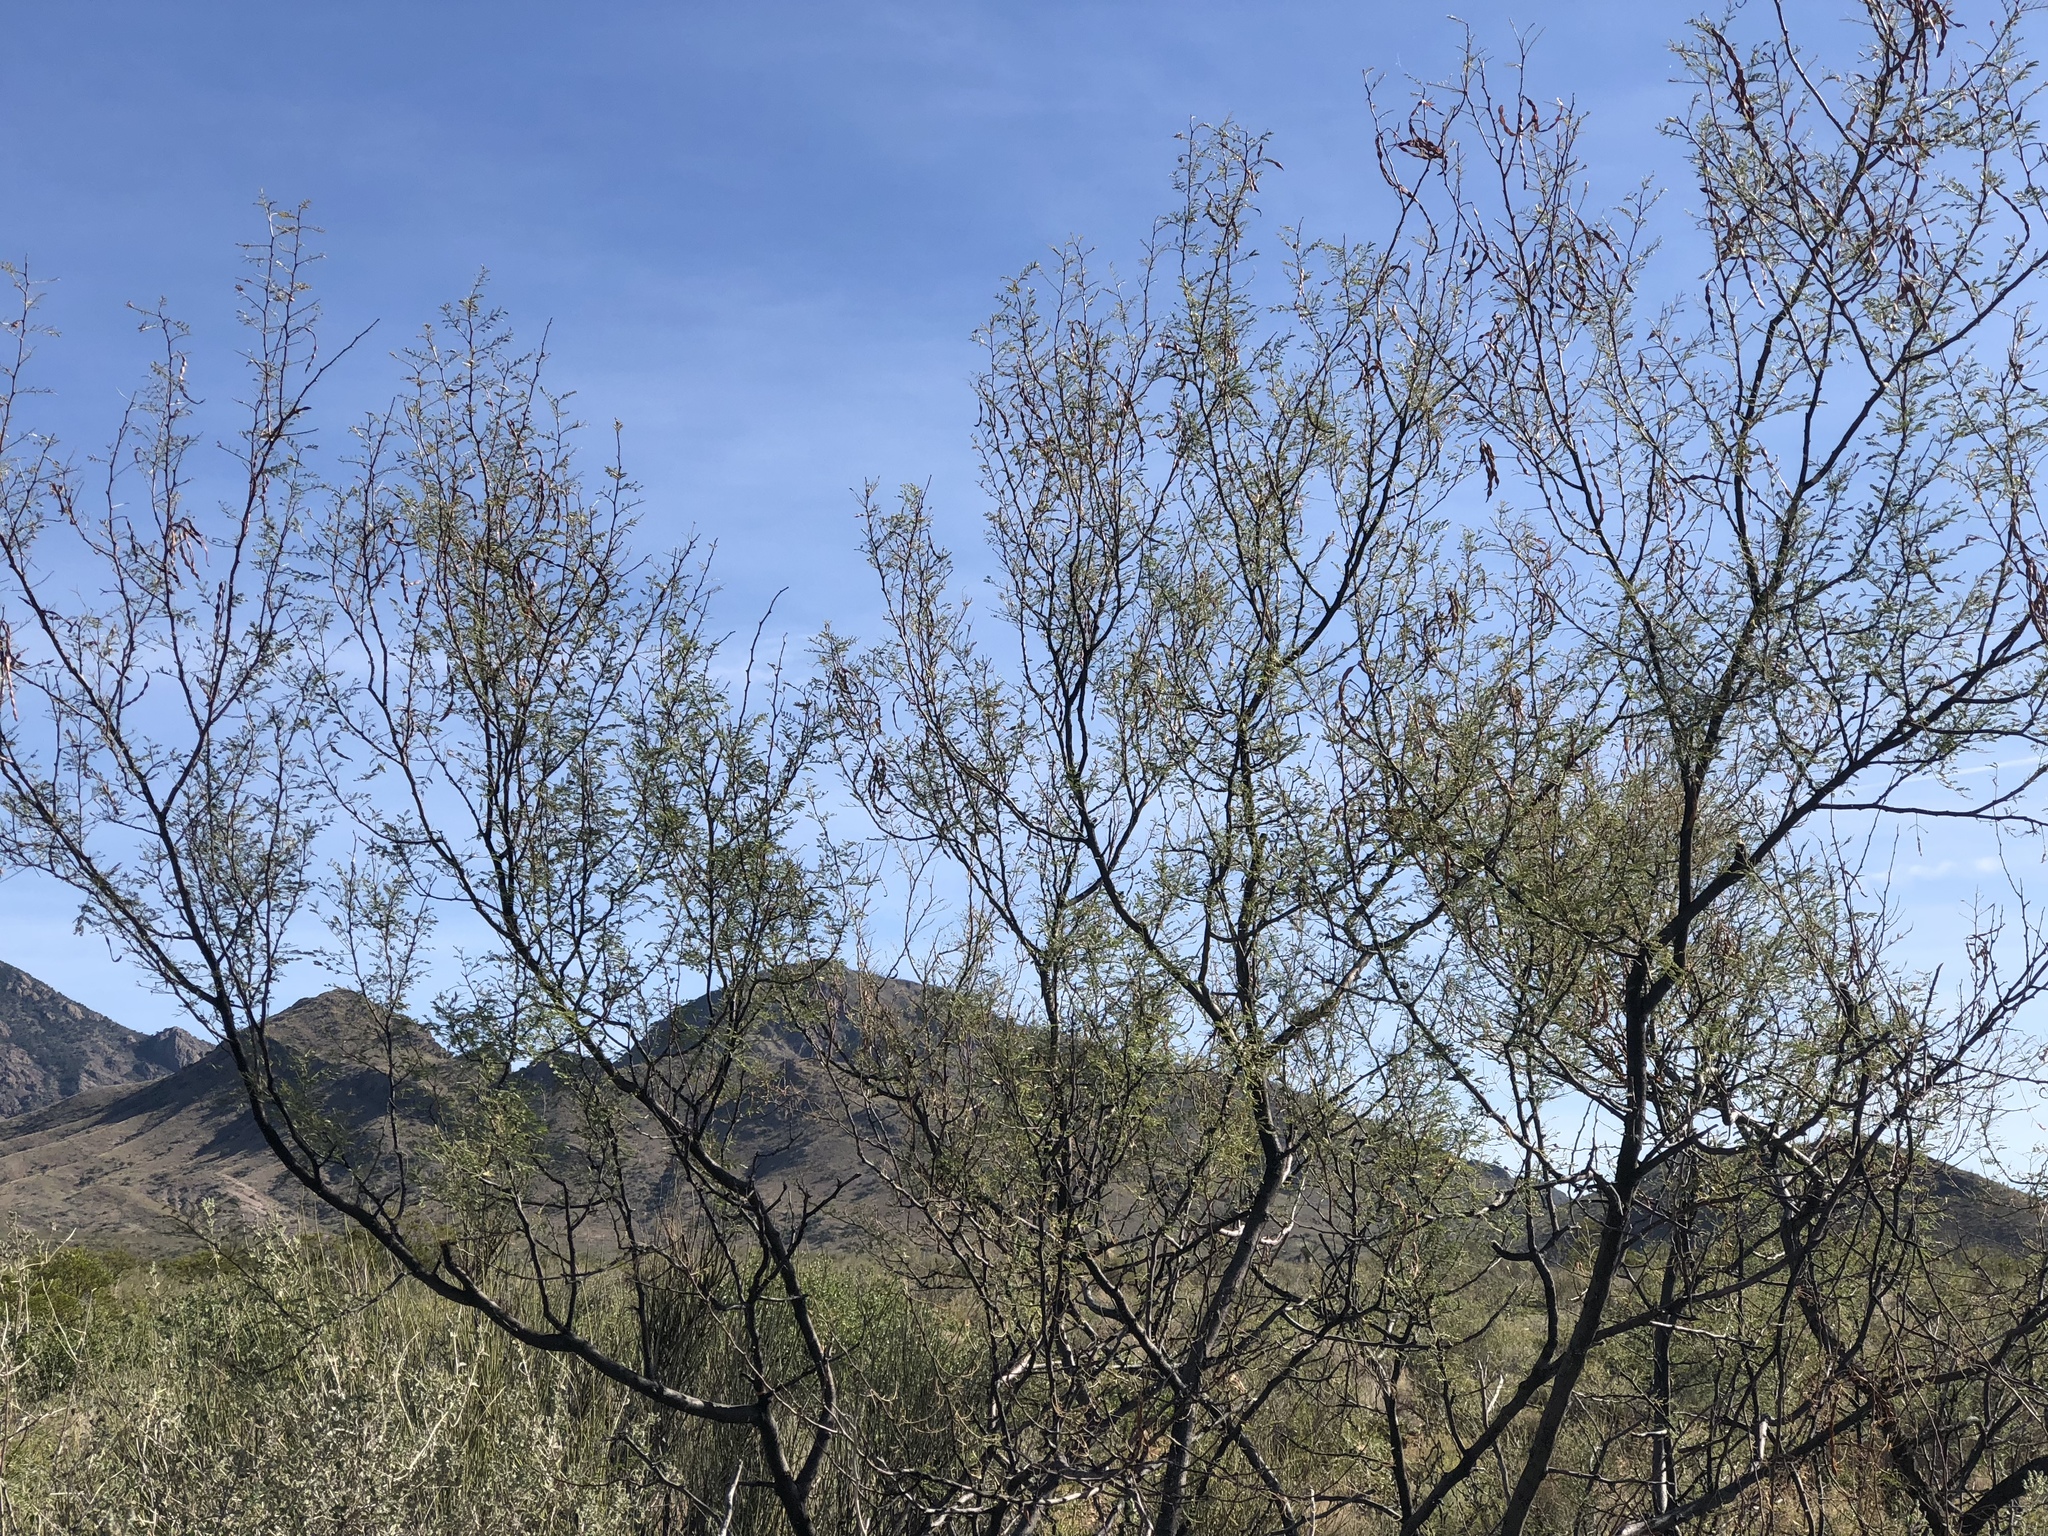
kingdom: Plantae
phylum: Tracheophyta
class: Magnoliopsida
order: Fabales
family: Fabaceae
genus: Vachellia
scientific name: Vachellia constricta
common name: Mescat acacia
